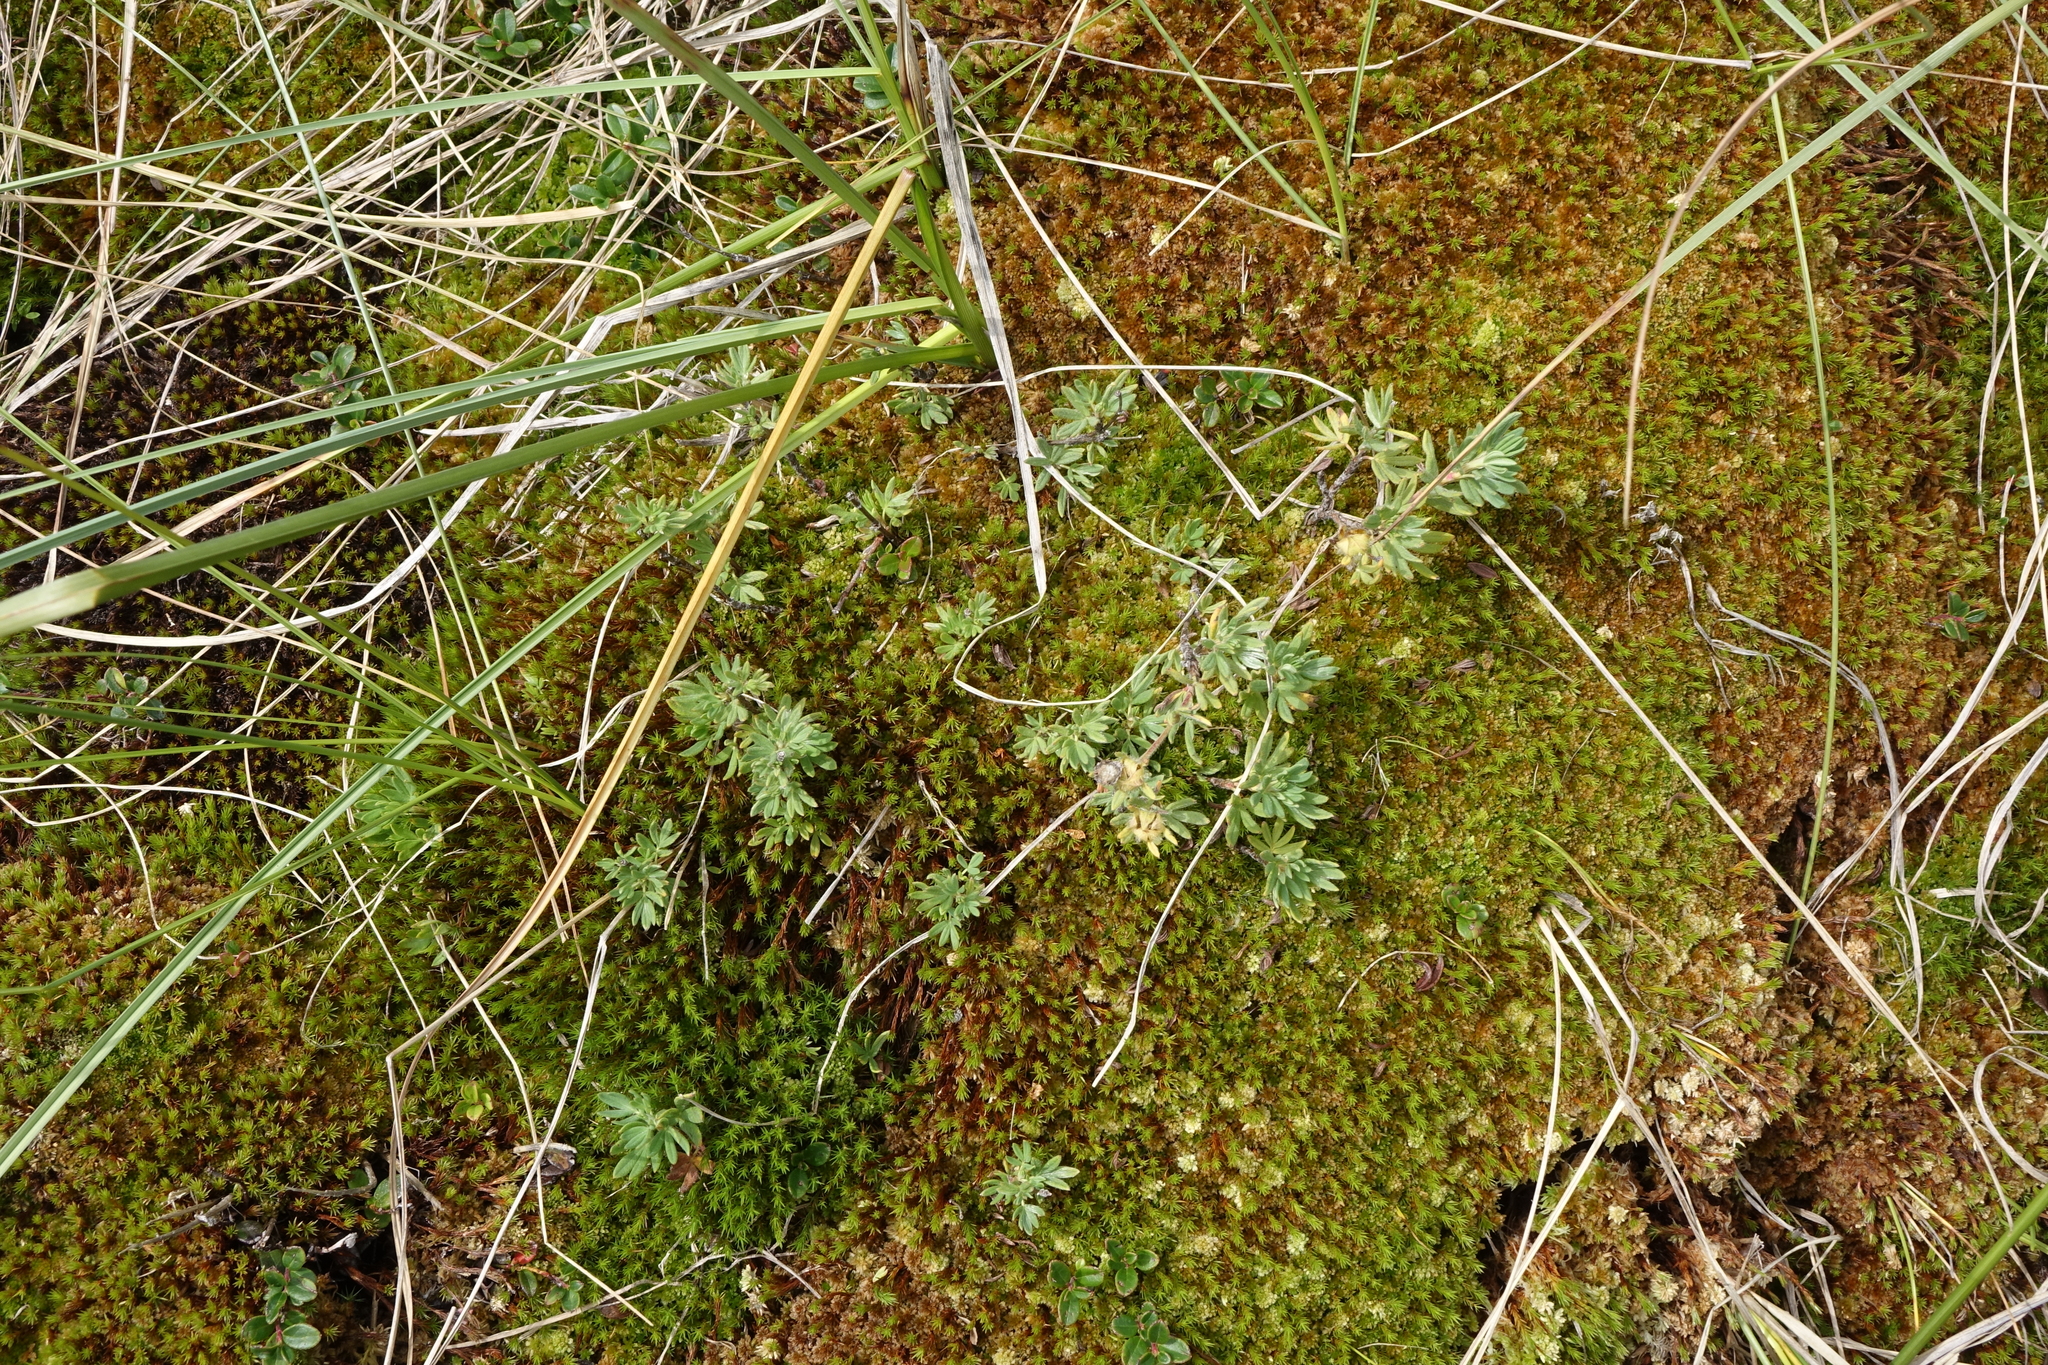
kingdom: Plantae
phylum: Tracheophyta
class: Magnoliopsida
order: Rosales
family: Rosaceae
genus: Dasiphora
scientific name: Dasiphora fruticosa
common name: Shrubby cinquefoil
